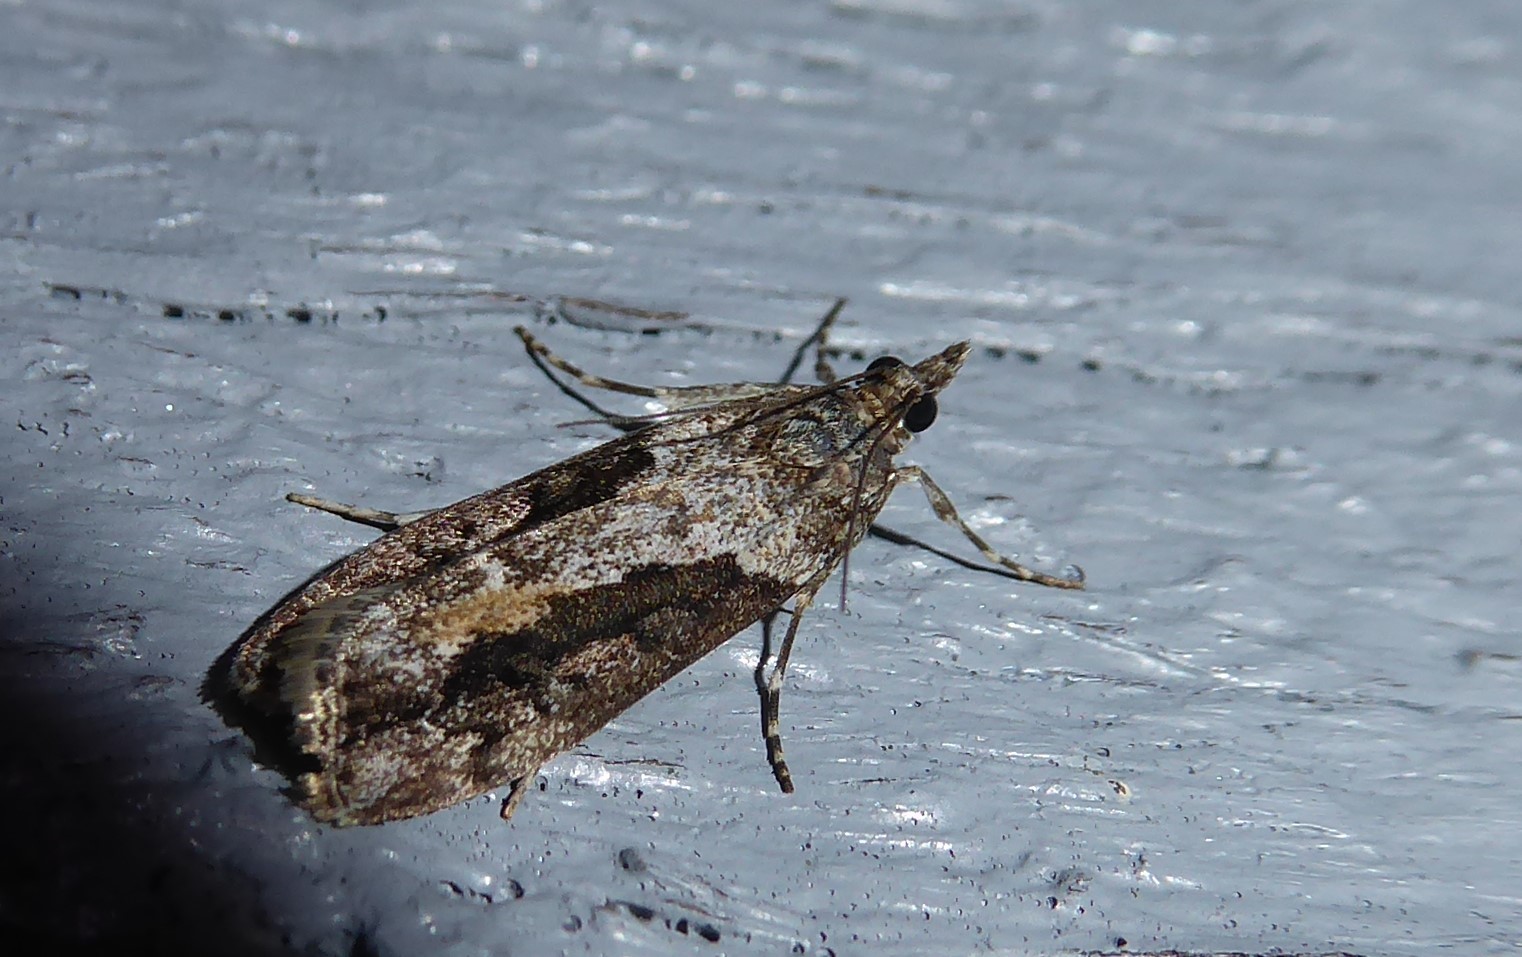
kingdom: Animalia
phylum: Arthropoda
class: Insecta
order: Lepidoptera
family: Crambidae
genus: Eudonia
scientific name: Eudonia submarginalis
